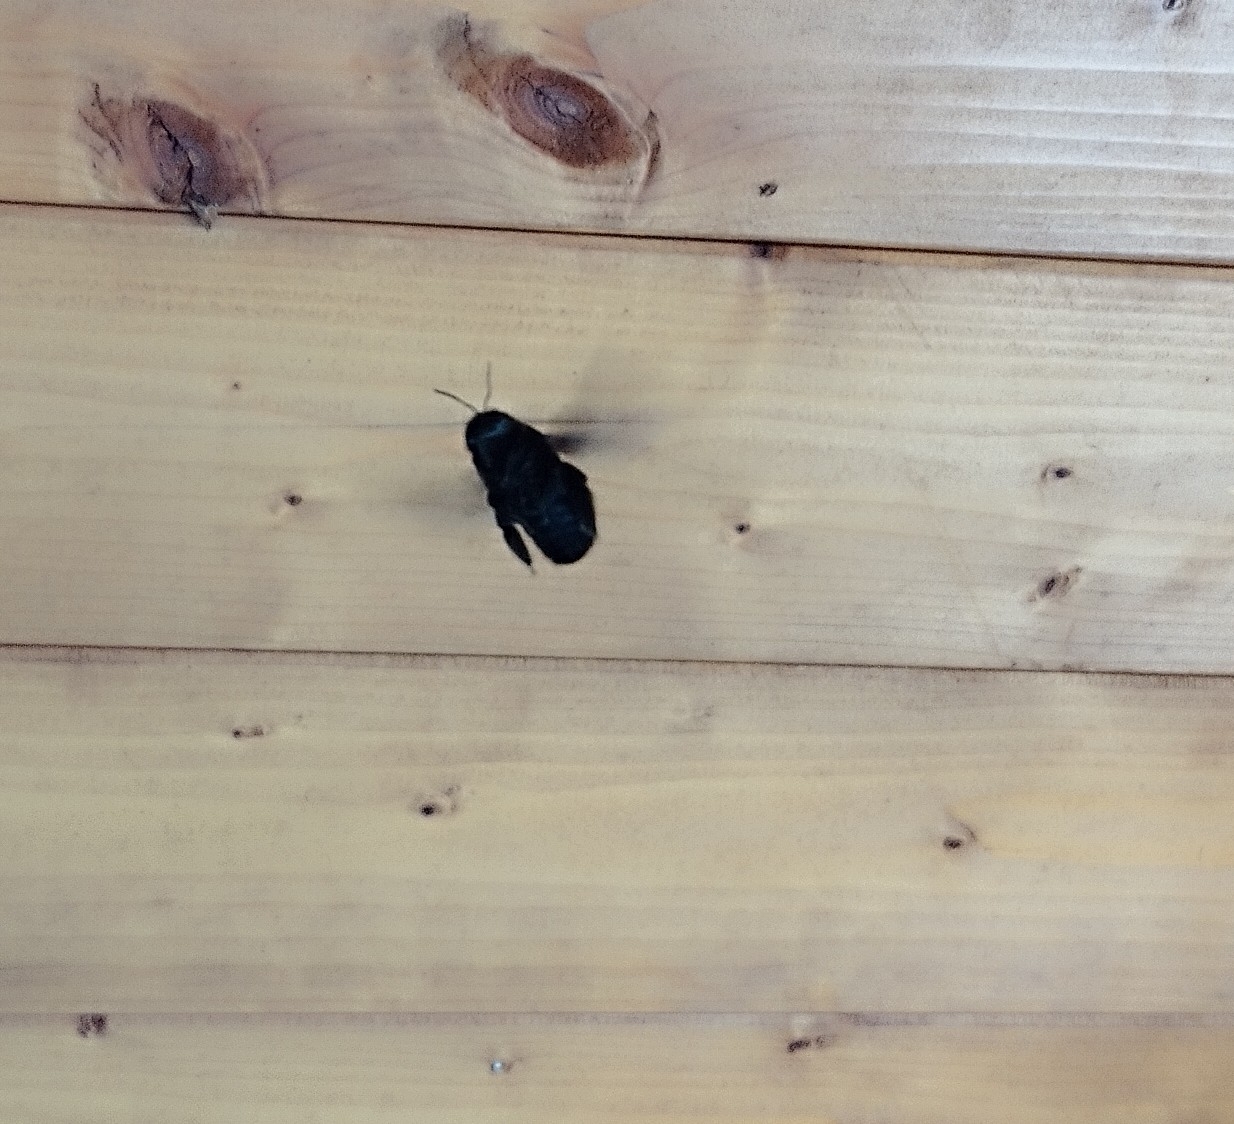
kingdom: Animalia
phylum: Arthropoda
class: Insecta
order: Hymenoptera
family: Apidae
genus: Xylocopa
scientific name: Xylocopa
